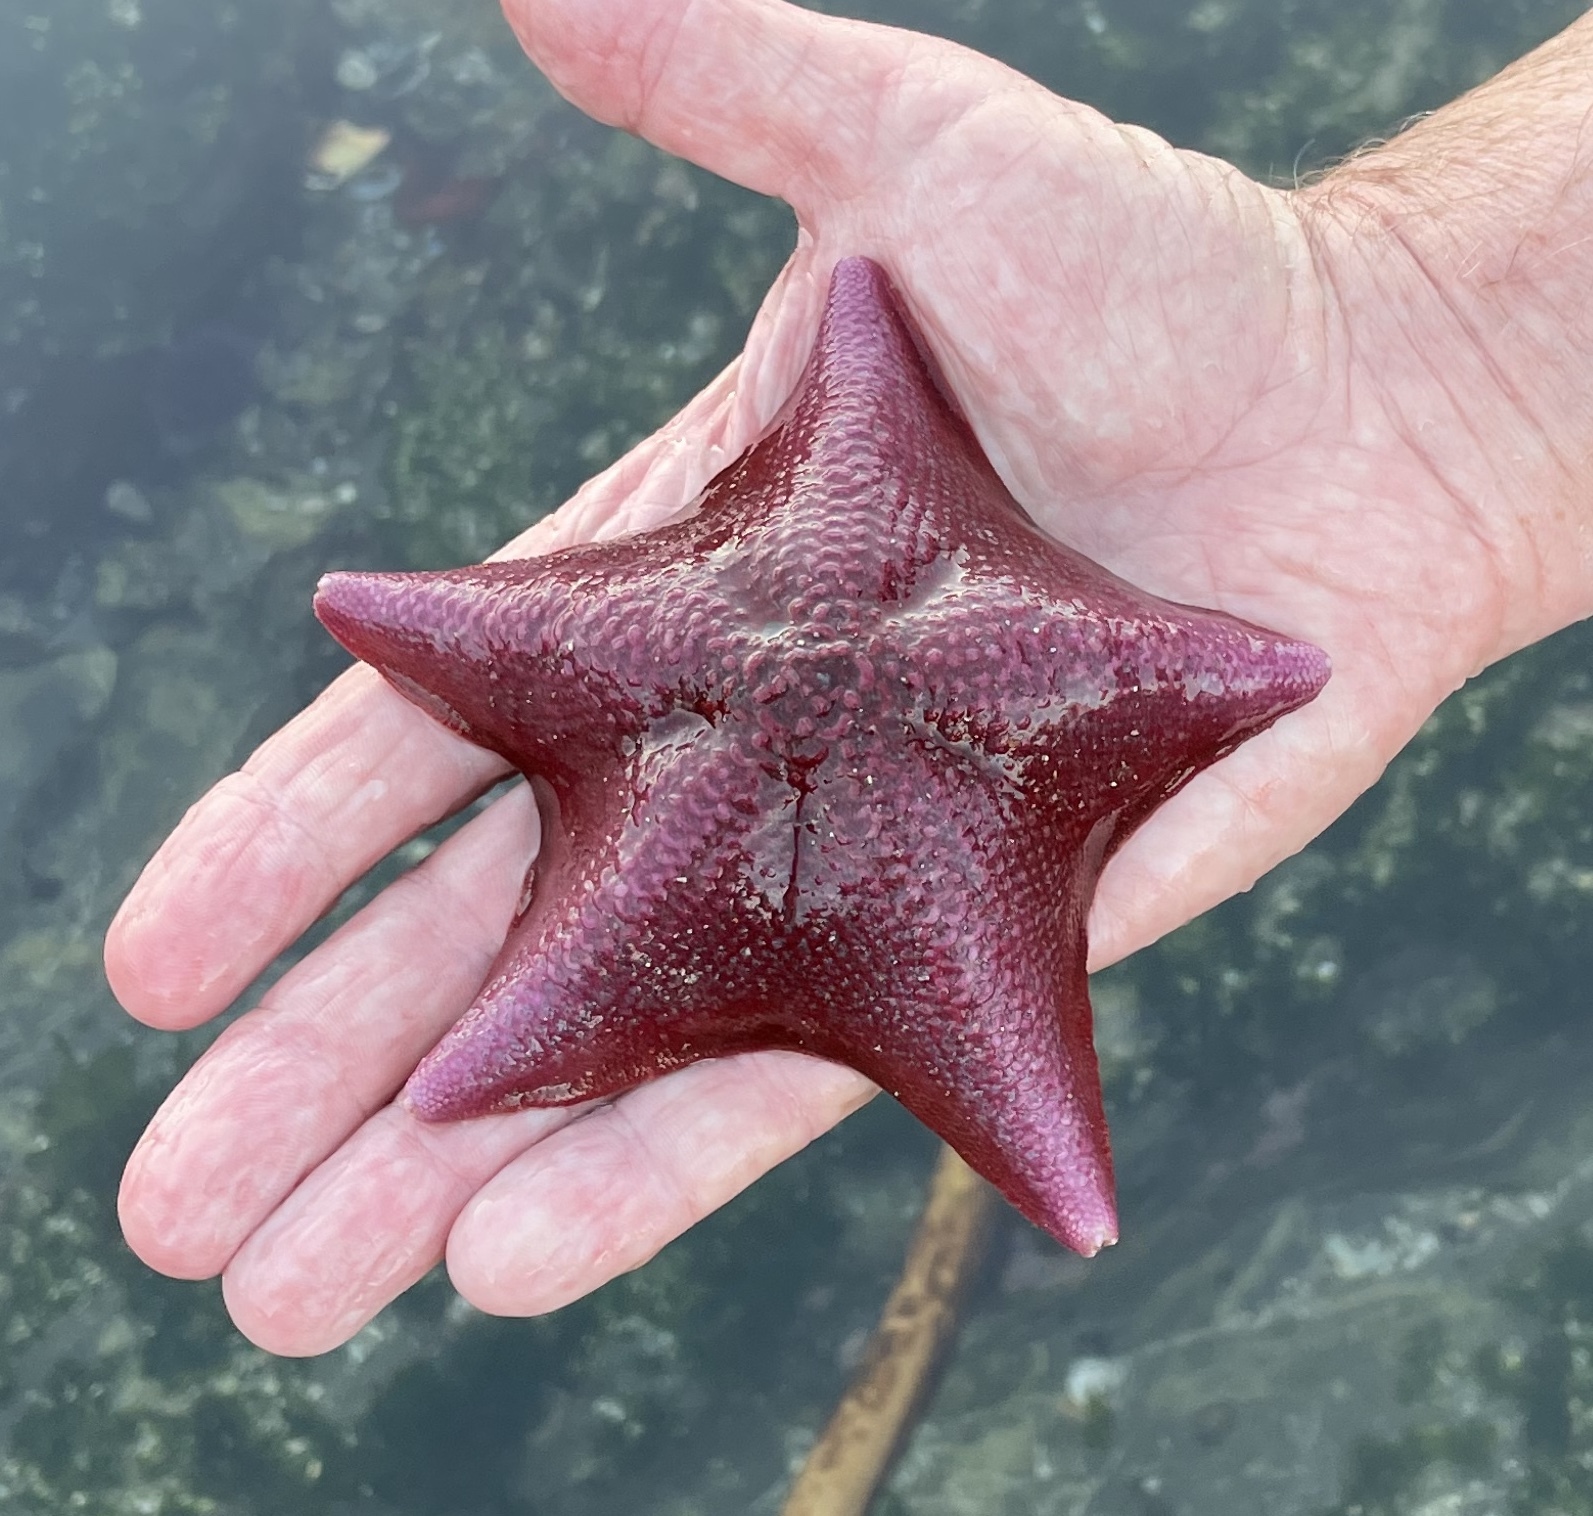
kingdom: Animalia
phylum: Echinodermata
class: Asteroidea
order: Valvatida
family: Asterinidae
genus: Patiria
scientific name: Patiria miniata
